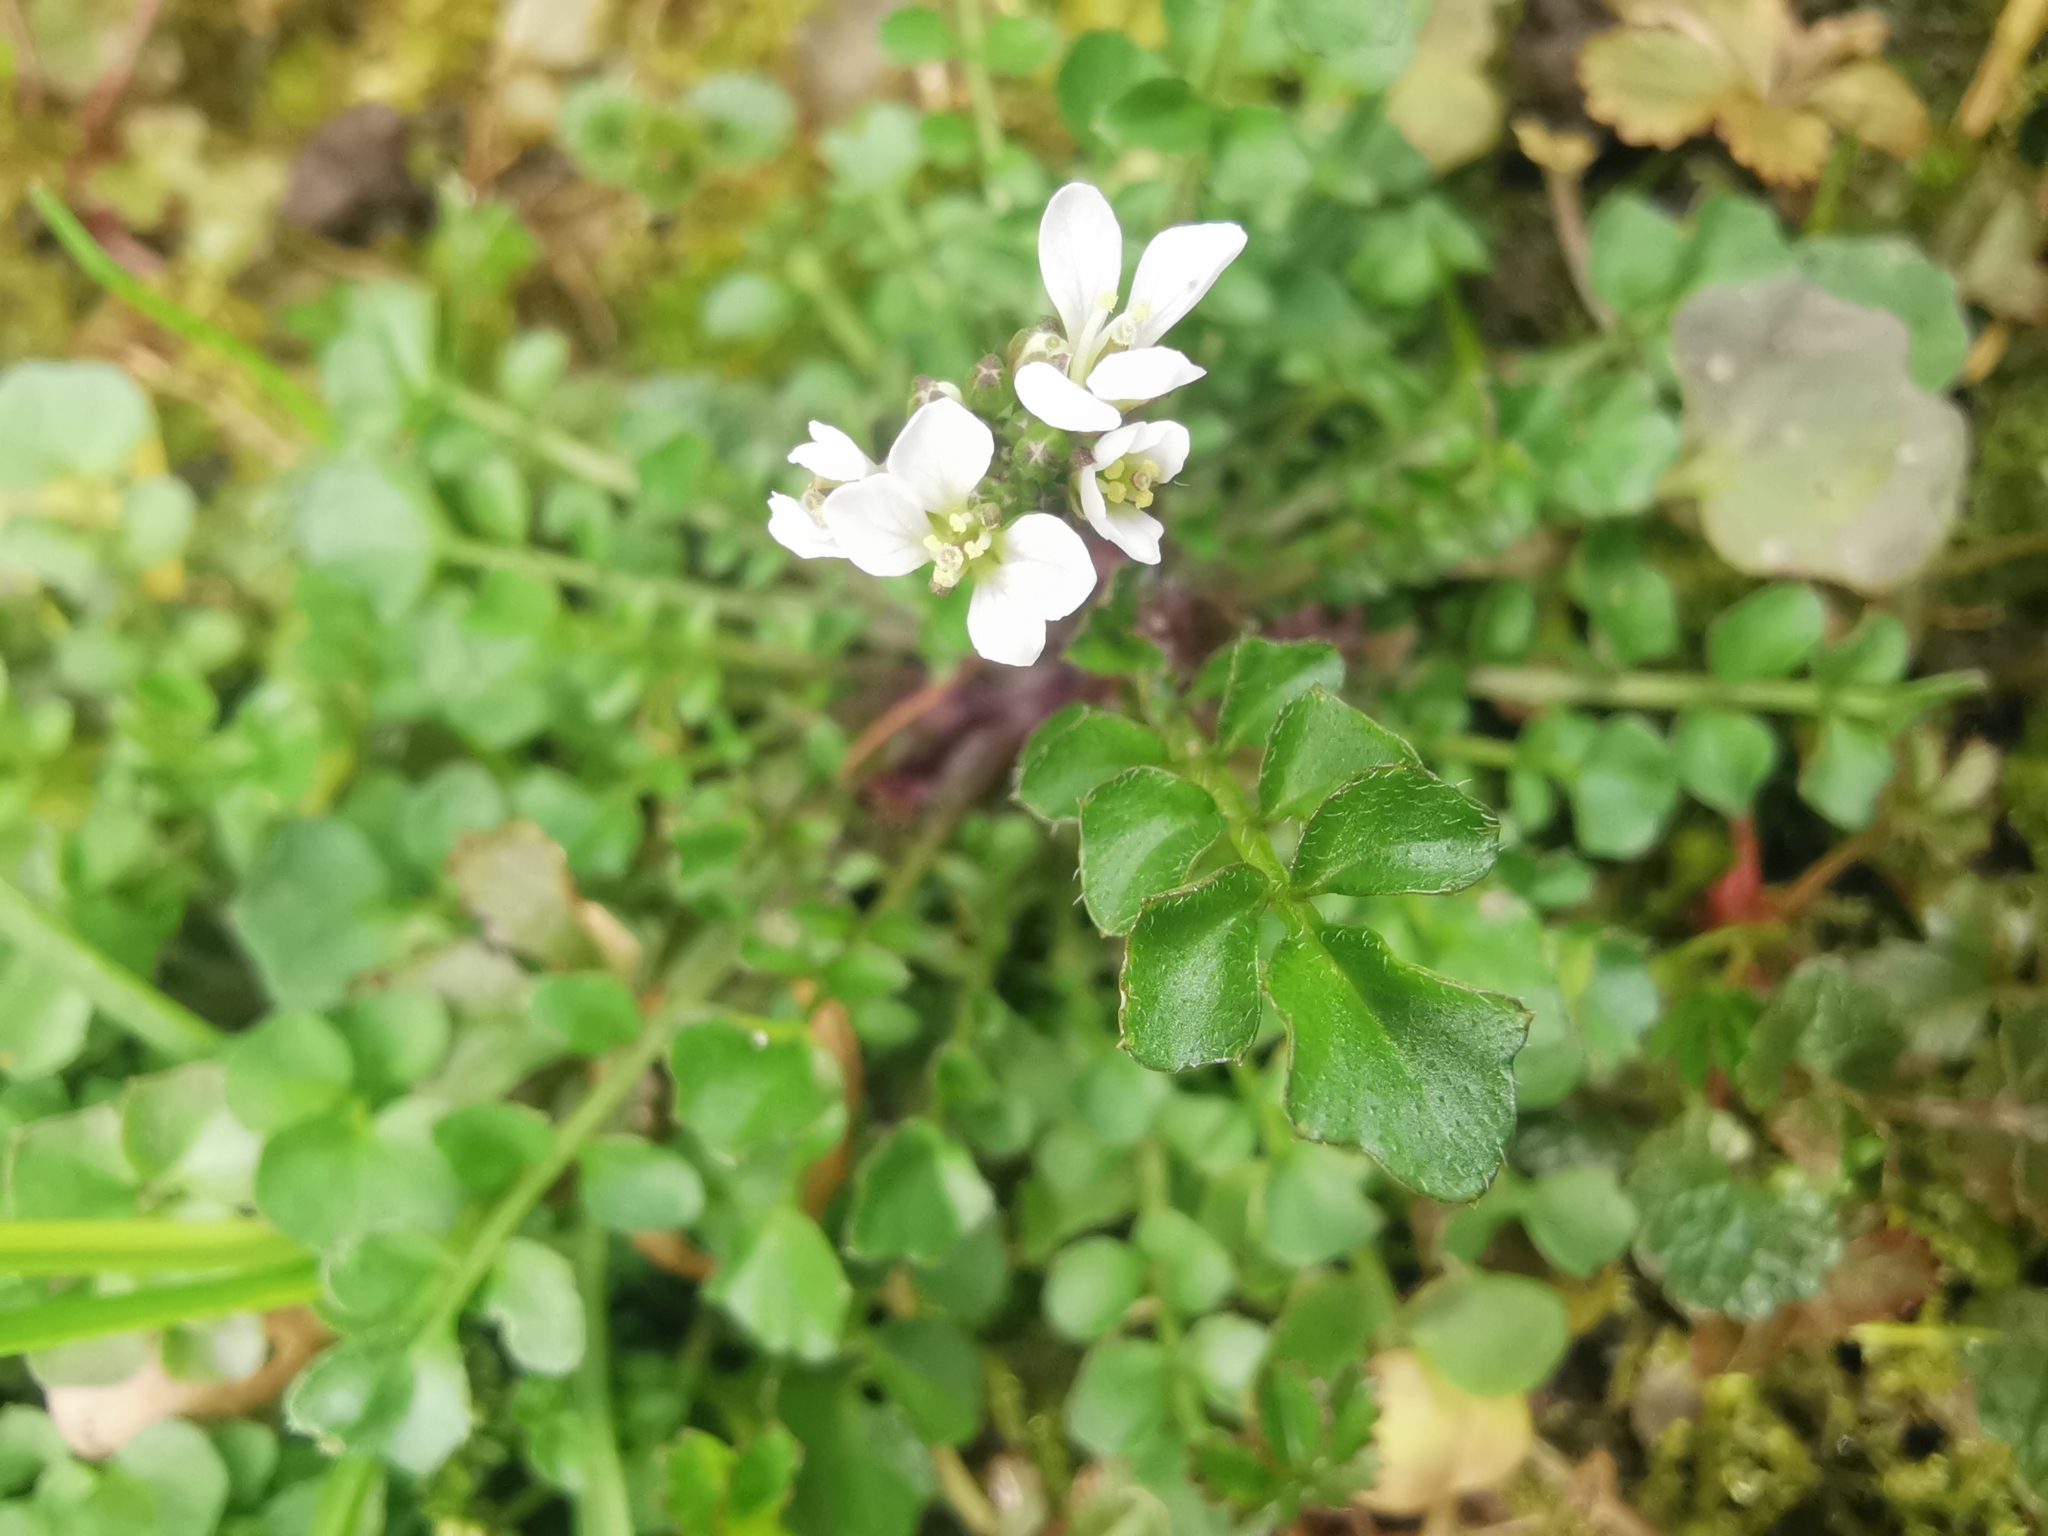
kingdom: Plantae
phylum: Tracheophyta
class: Magnoliopsida
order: Brassicales
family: Brassicaceae
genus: Cardamine
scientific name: Cardamine hirsuta
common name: Hairy bittercress
